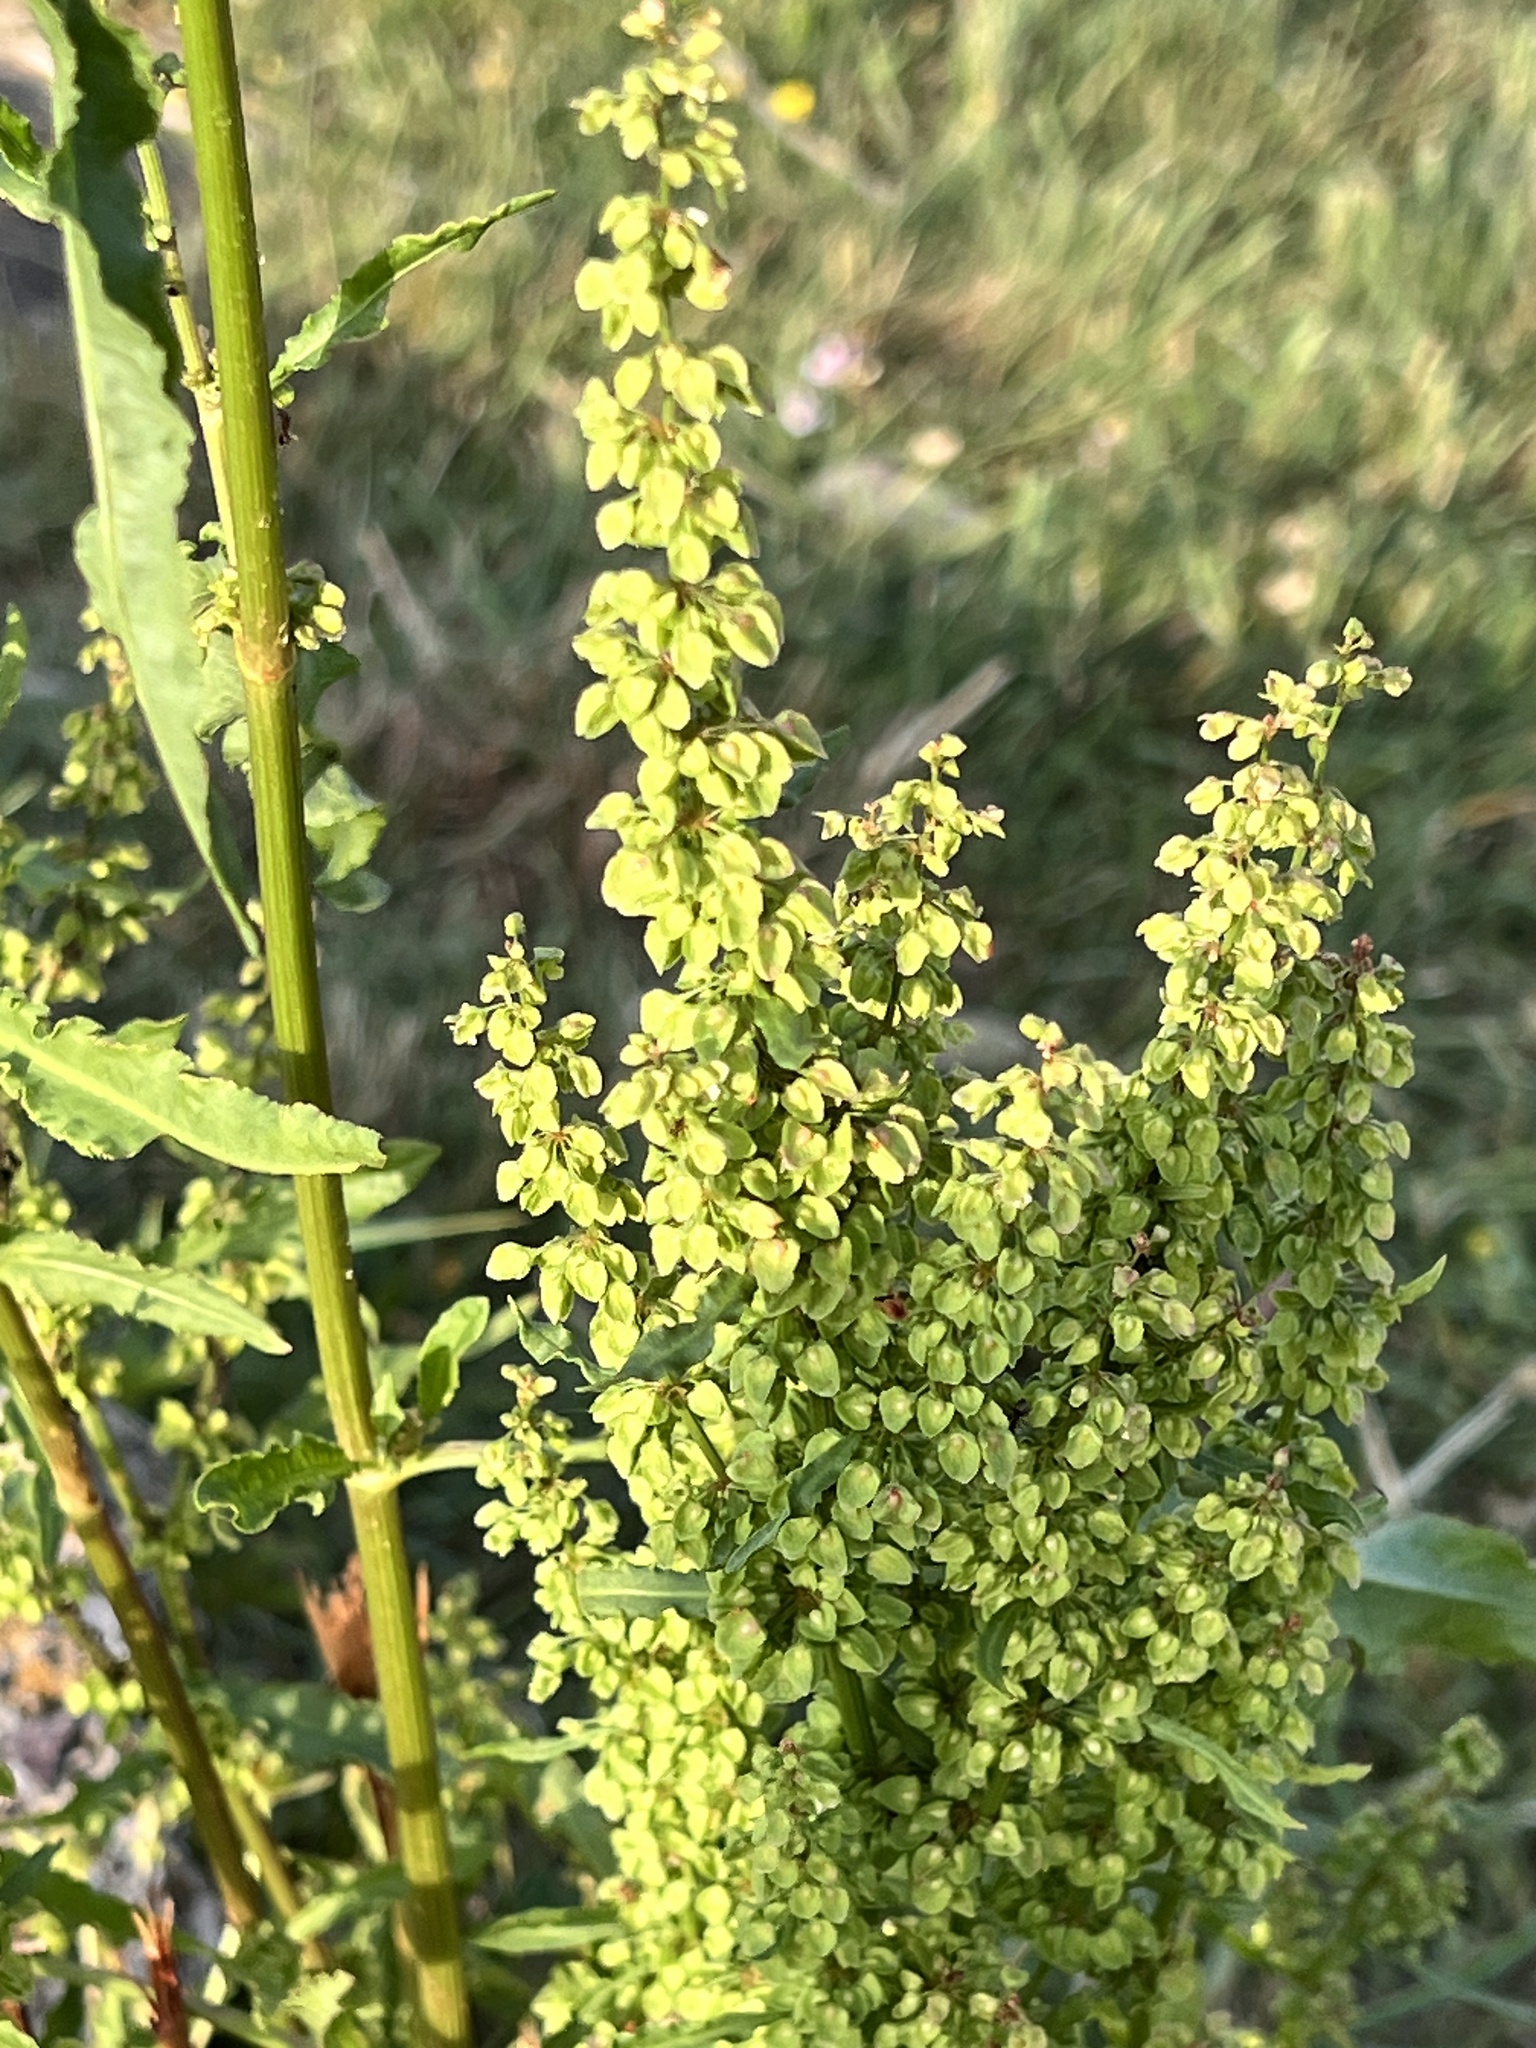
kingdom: Plantae
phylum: Tracheophyta
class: Magnoliopsida
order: Caryophyllales
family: Polygonaceae
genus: Rumex
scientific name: Rumex crispus
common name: Curled dock
